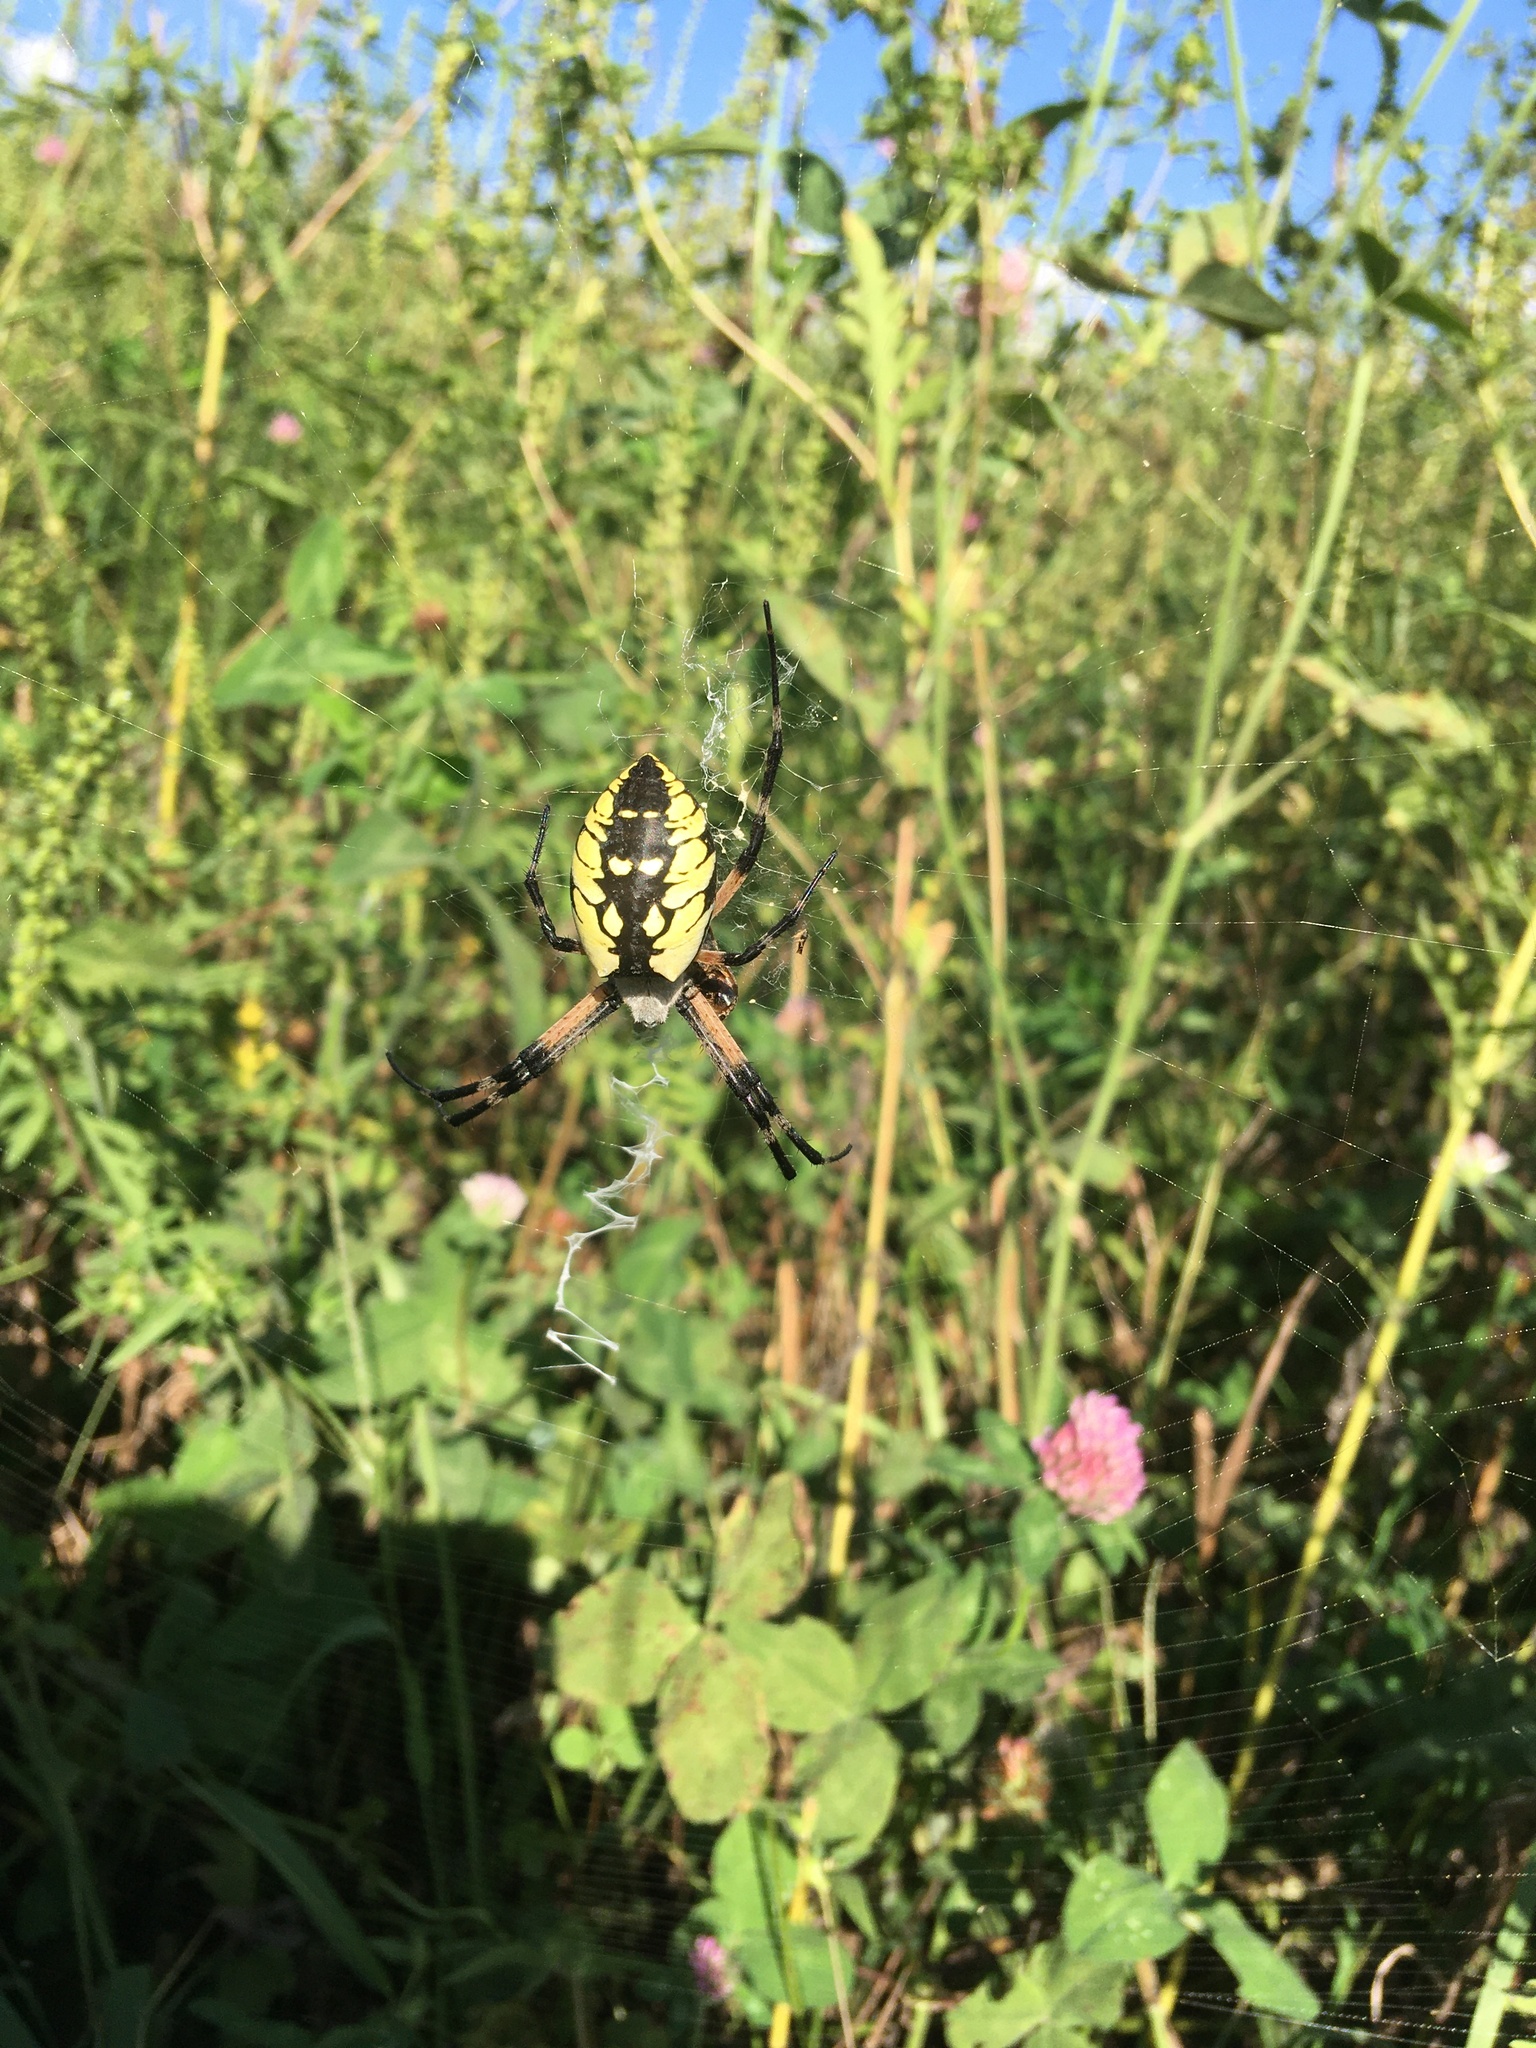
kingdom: Animalia
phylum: Arthropoda
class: Arachnida
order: Araneae
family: Araneidae
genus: Argiope
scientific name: Argiope aurantia
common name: Orb weavers
